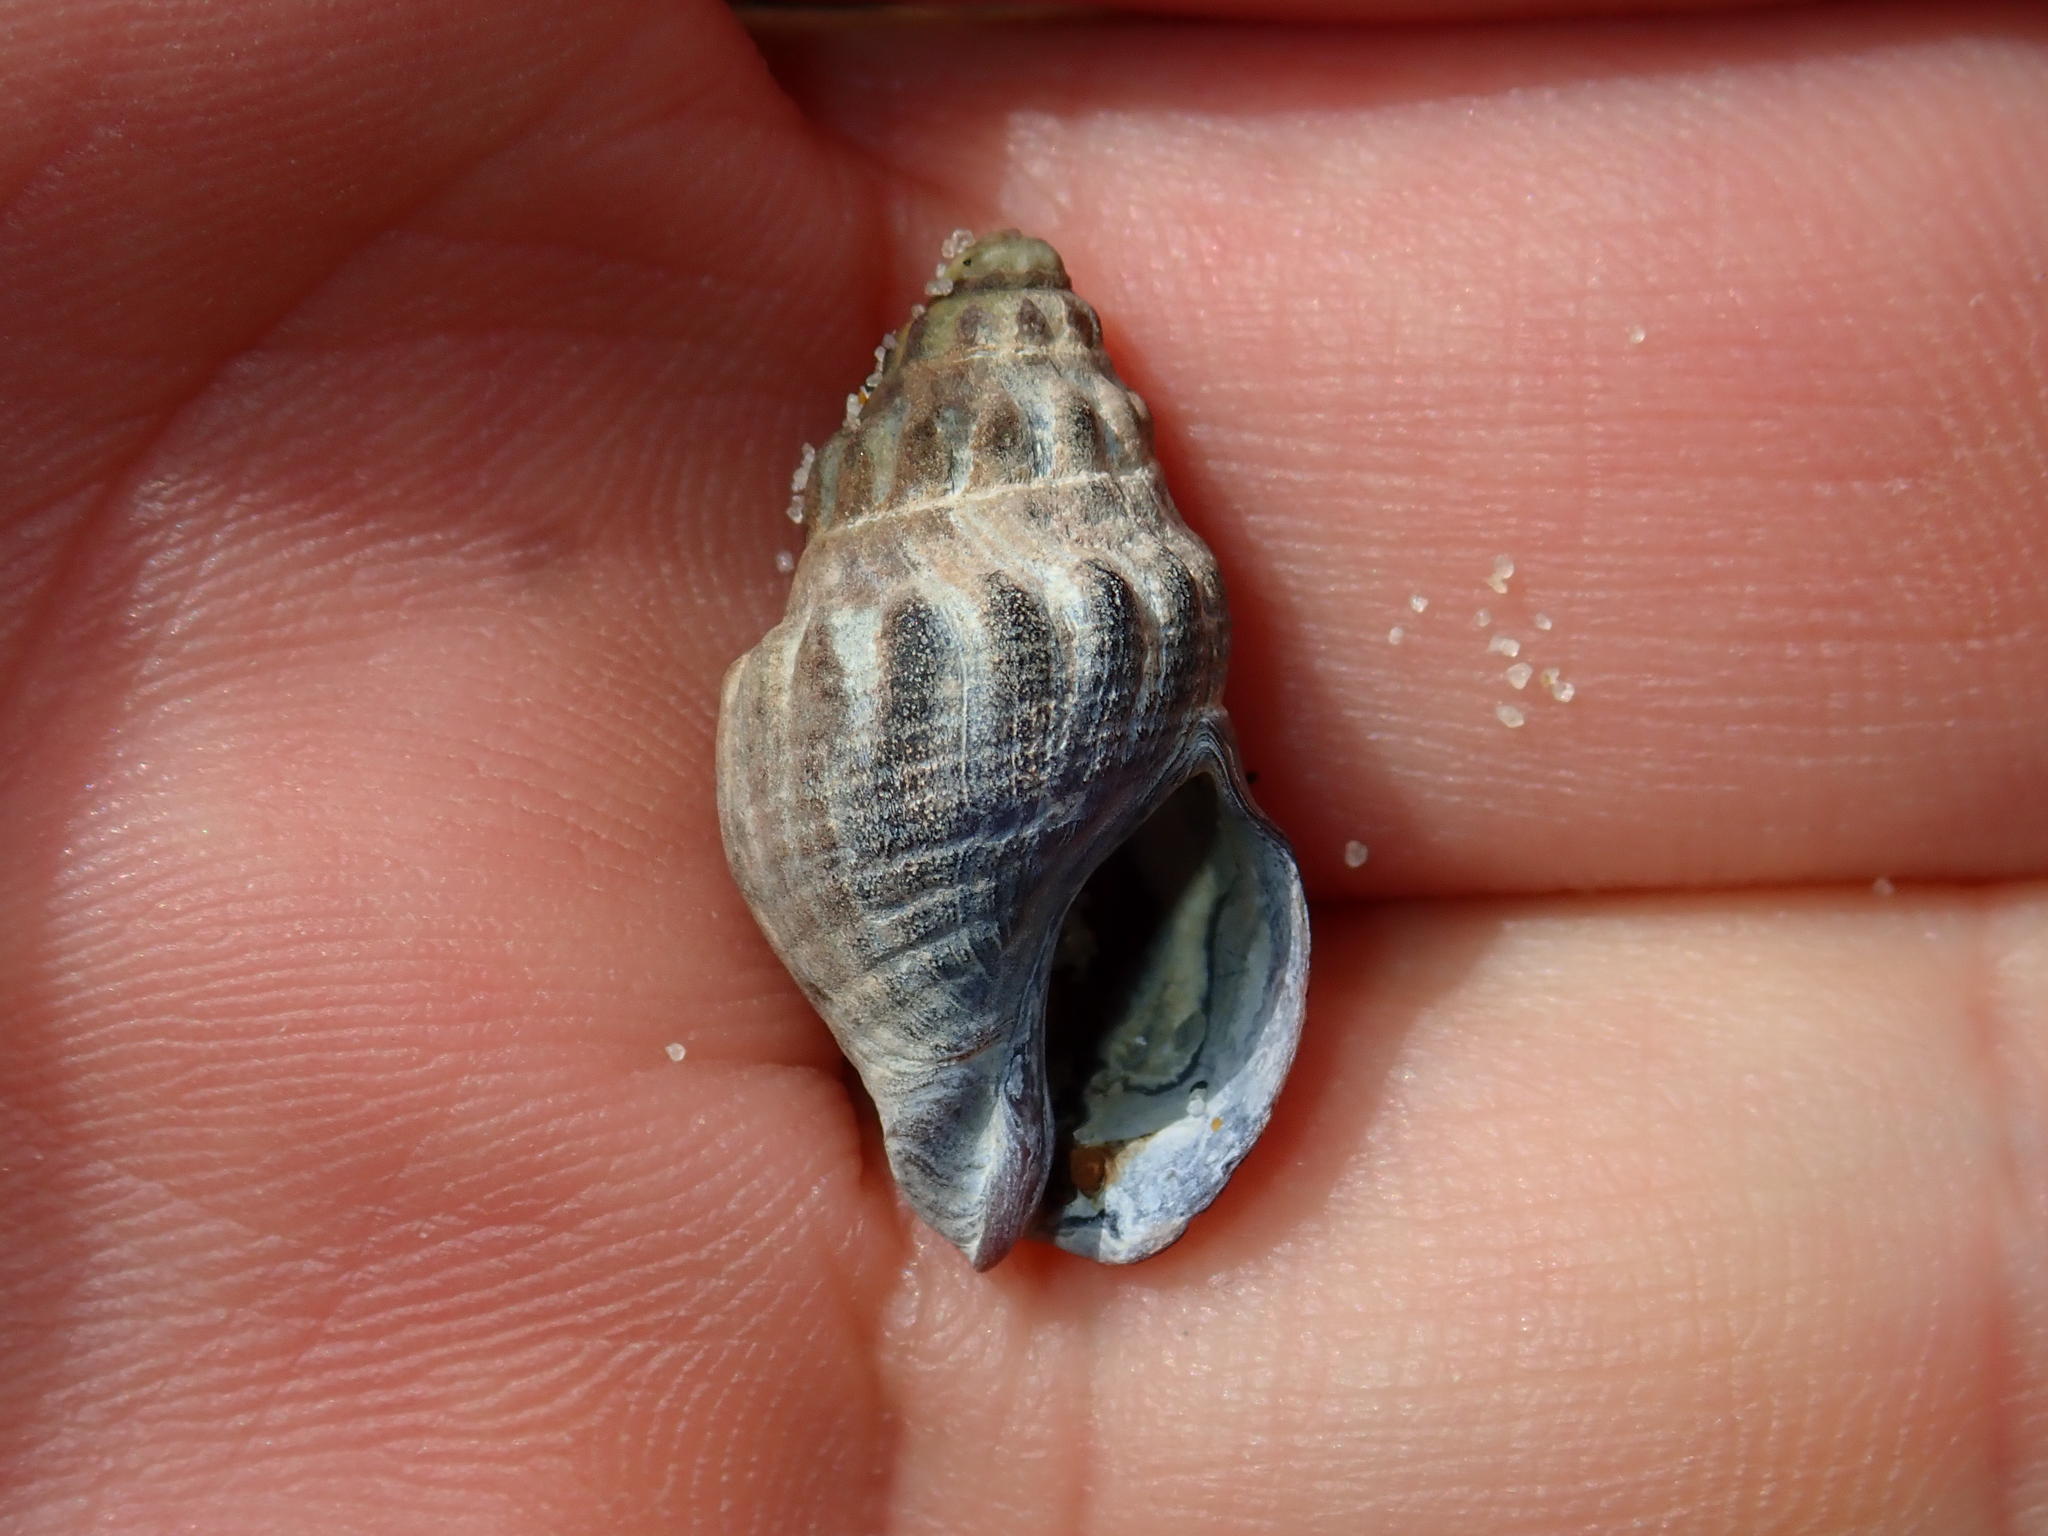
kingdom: Animalia
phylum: Mollusca
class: Gastropoda
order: Neogastropoda
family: Cominellidae
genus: Cominella
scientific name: Cominella glandiformis
